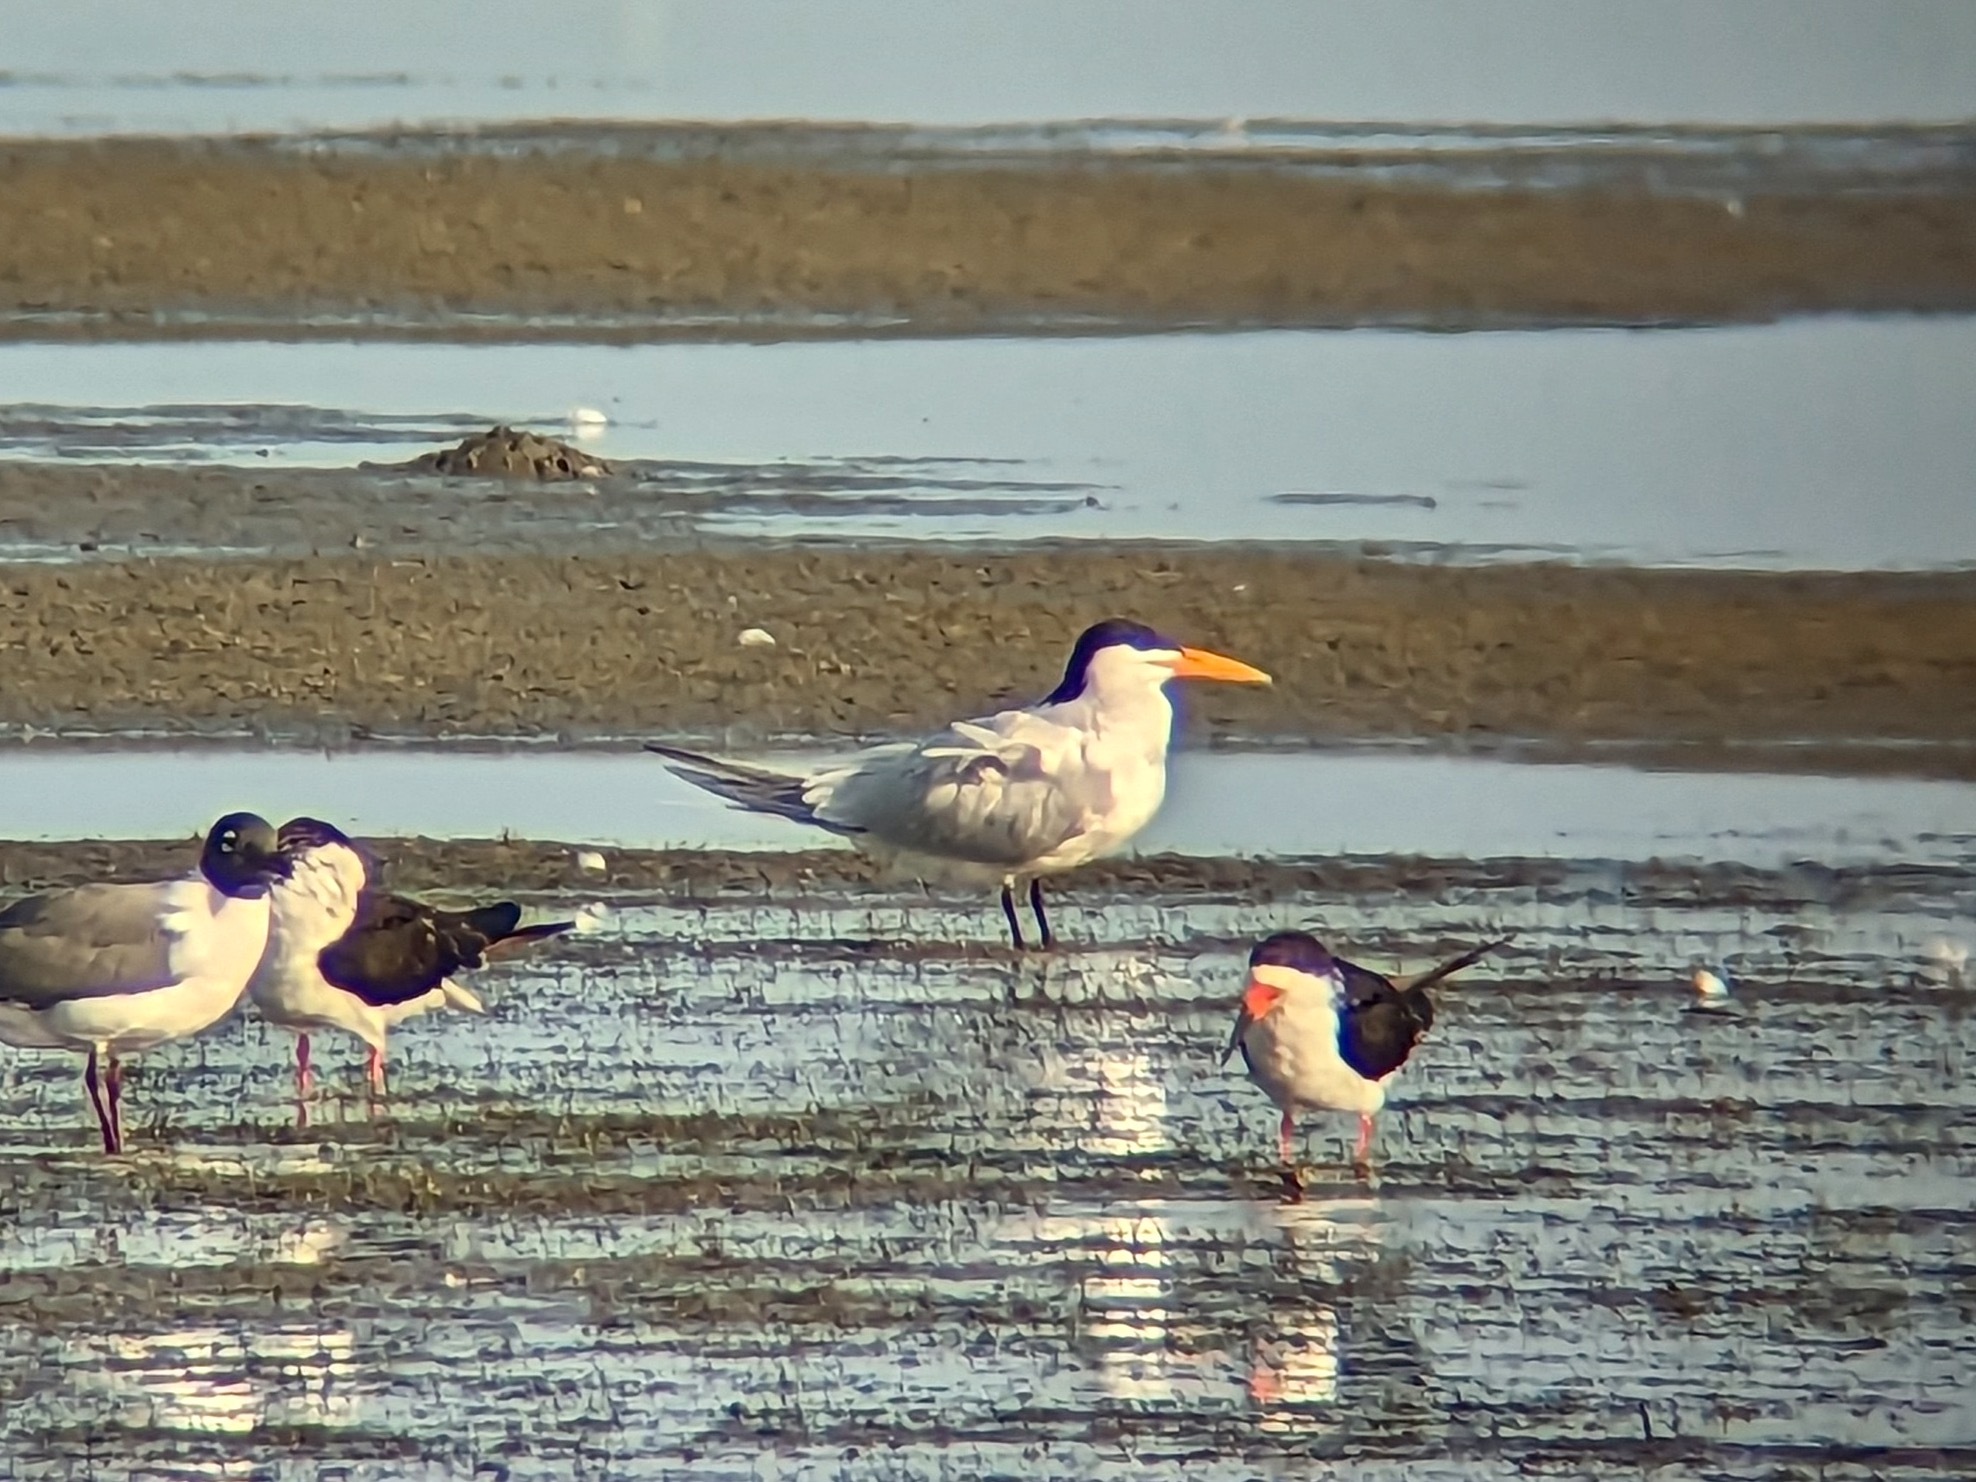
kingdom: Animalia
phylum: Chordata
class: Aves
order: Charadriiformes
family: Laridae
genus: Thalasseus
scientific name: Thalasseus maximus
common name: Royal tern
